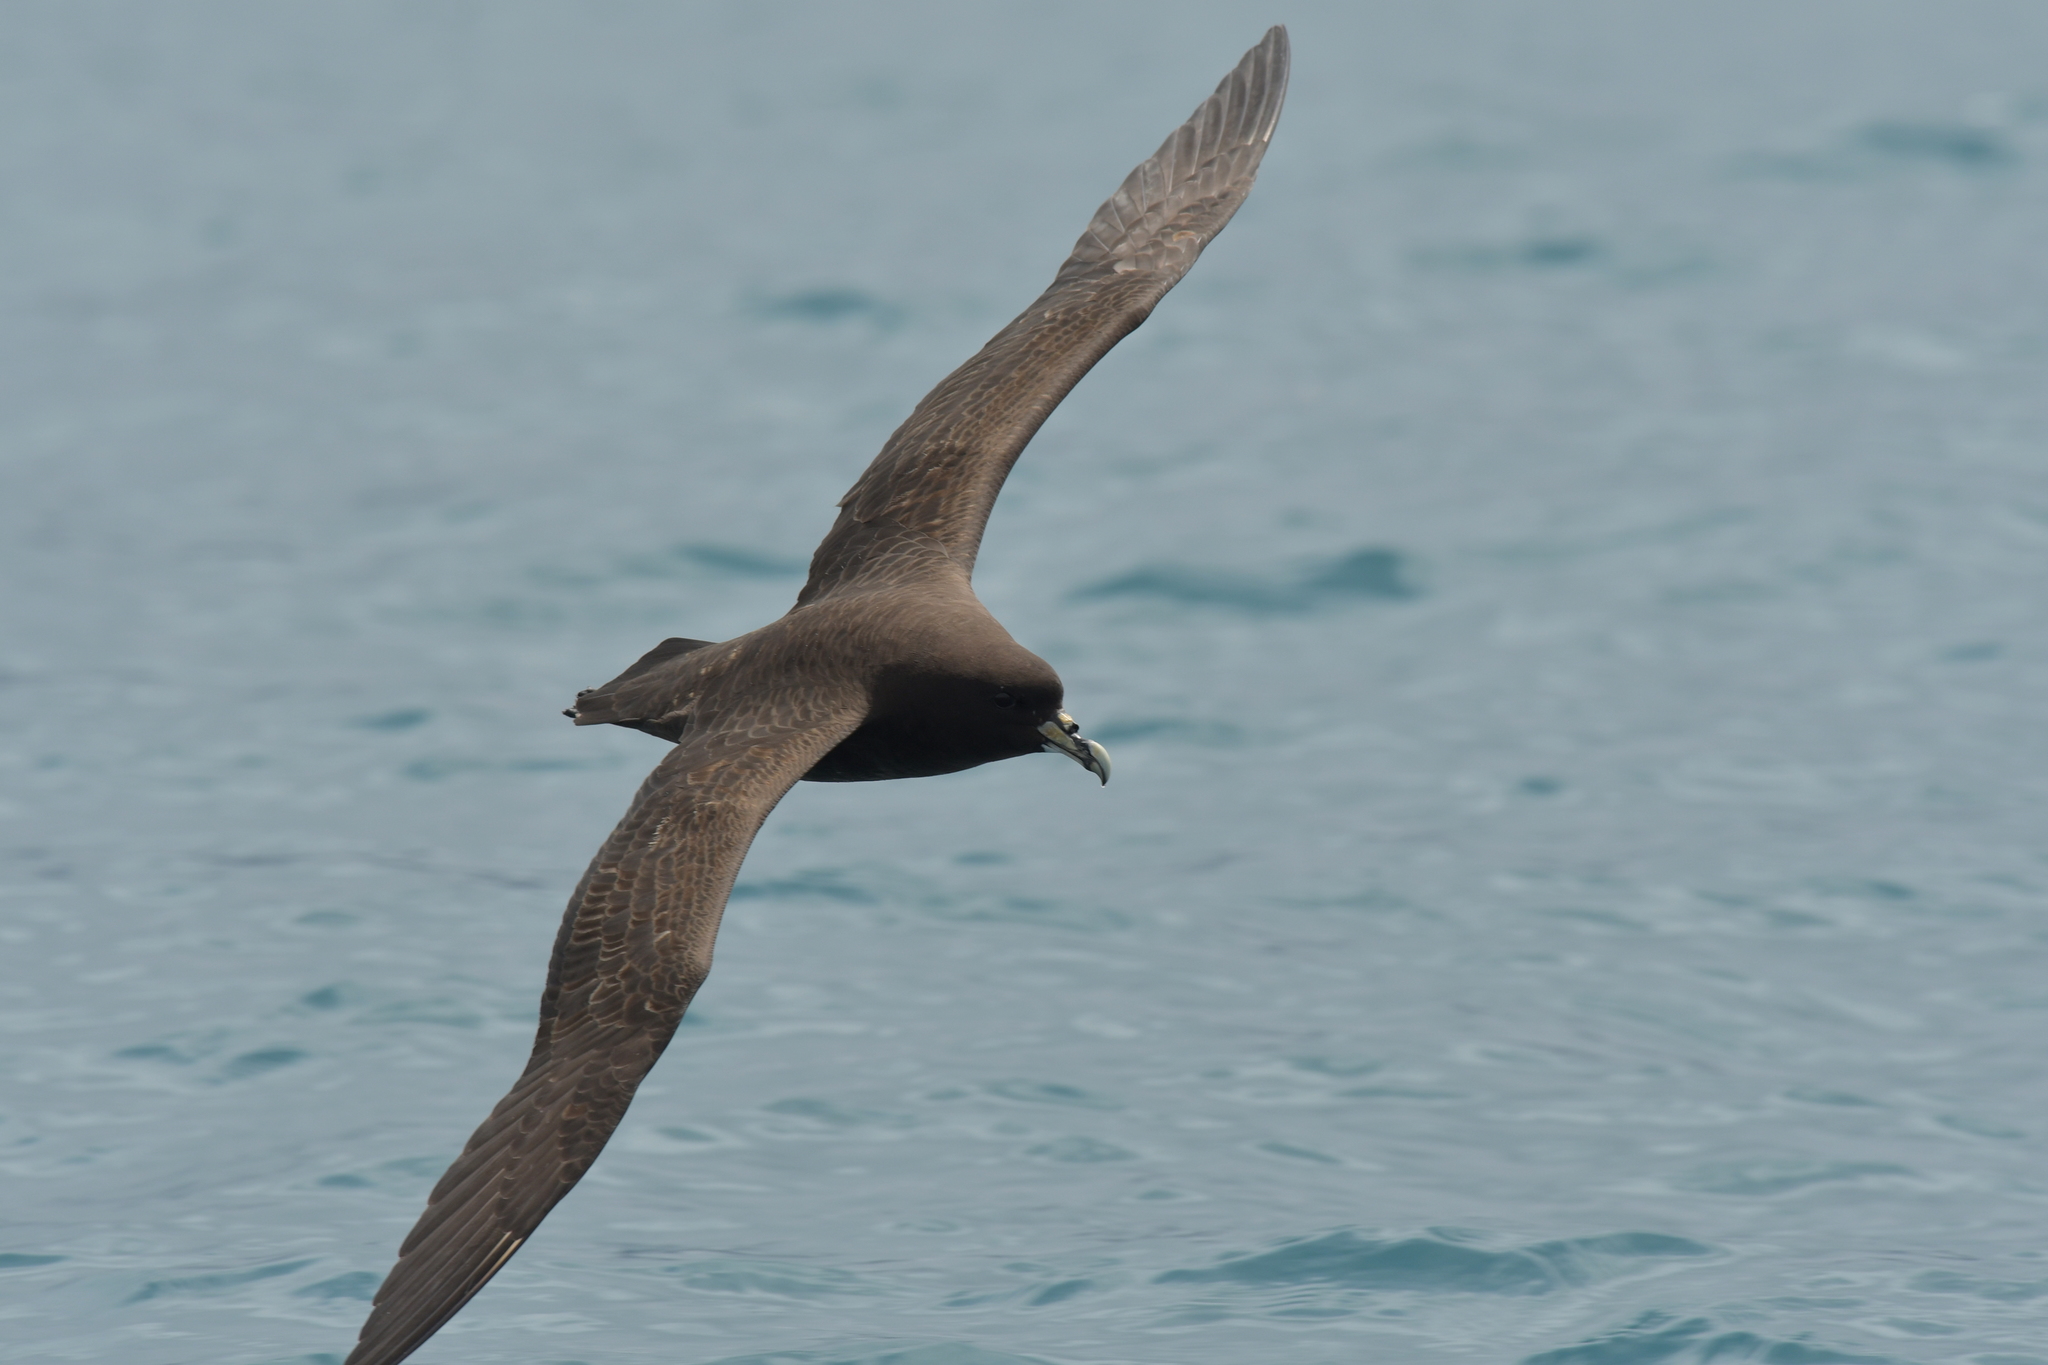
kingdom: Animalia
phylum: Chordata
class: Aves
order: Procellariiformes
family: Procellariidae
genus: Procellaria
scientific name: Procellaria aequinoctialis
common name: White-chinned petrel
